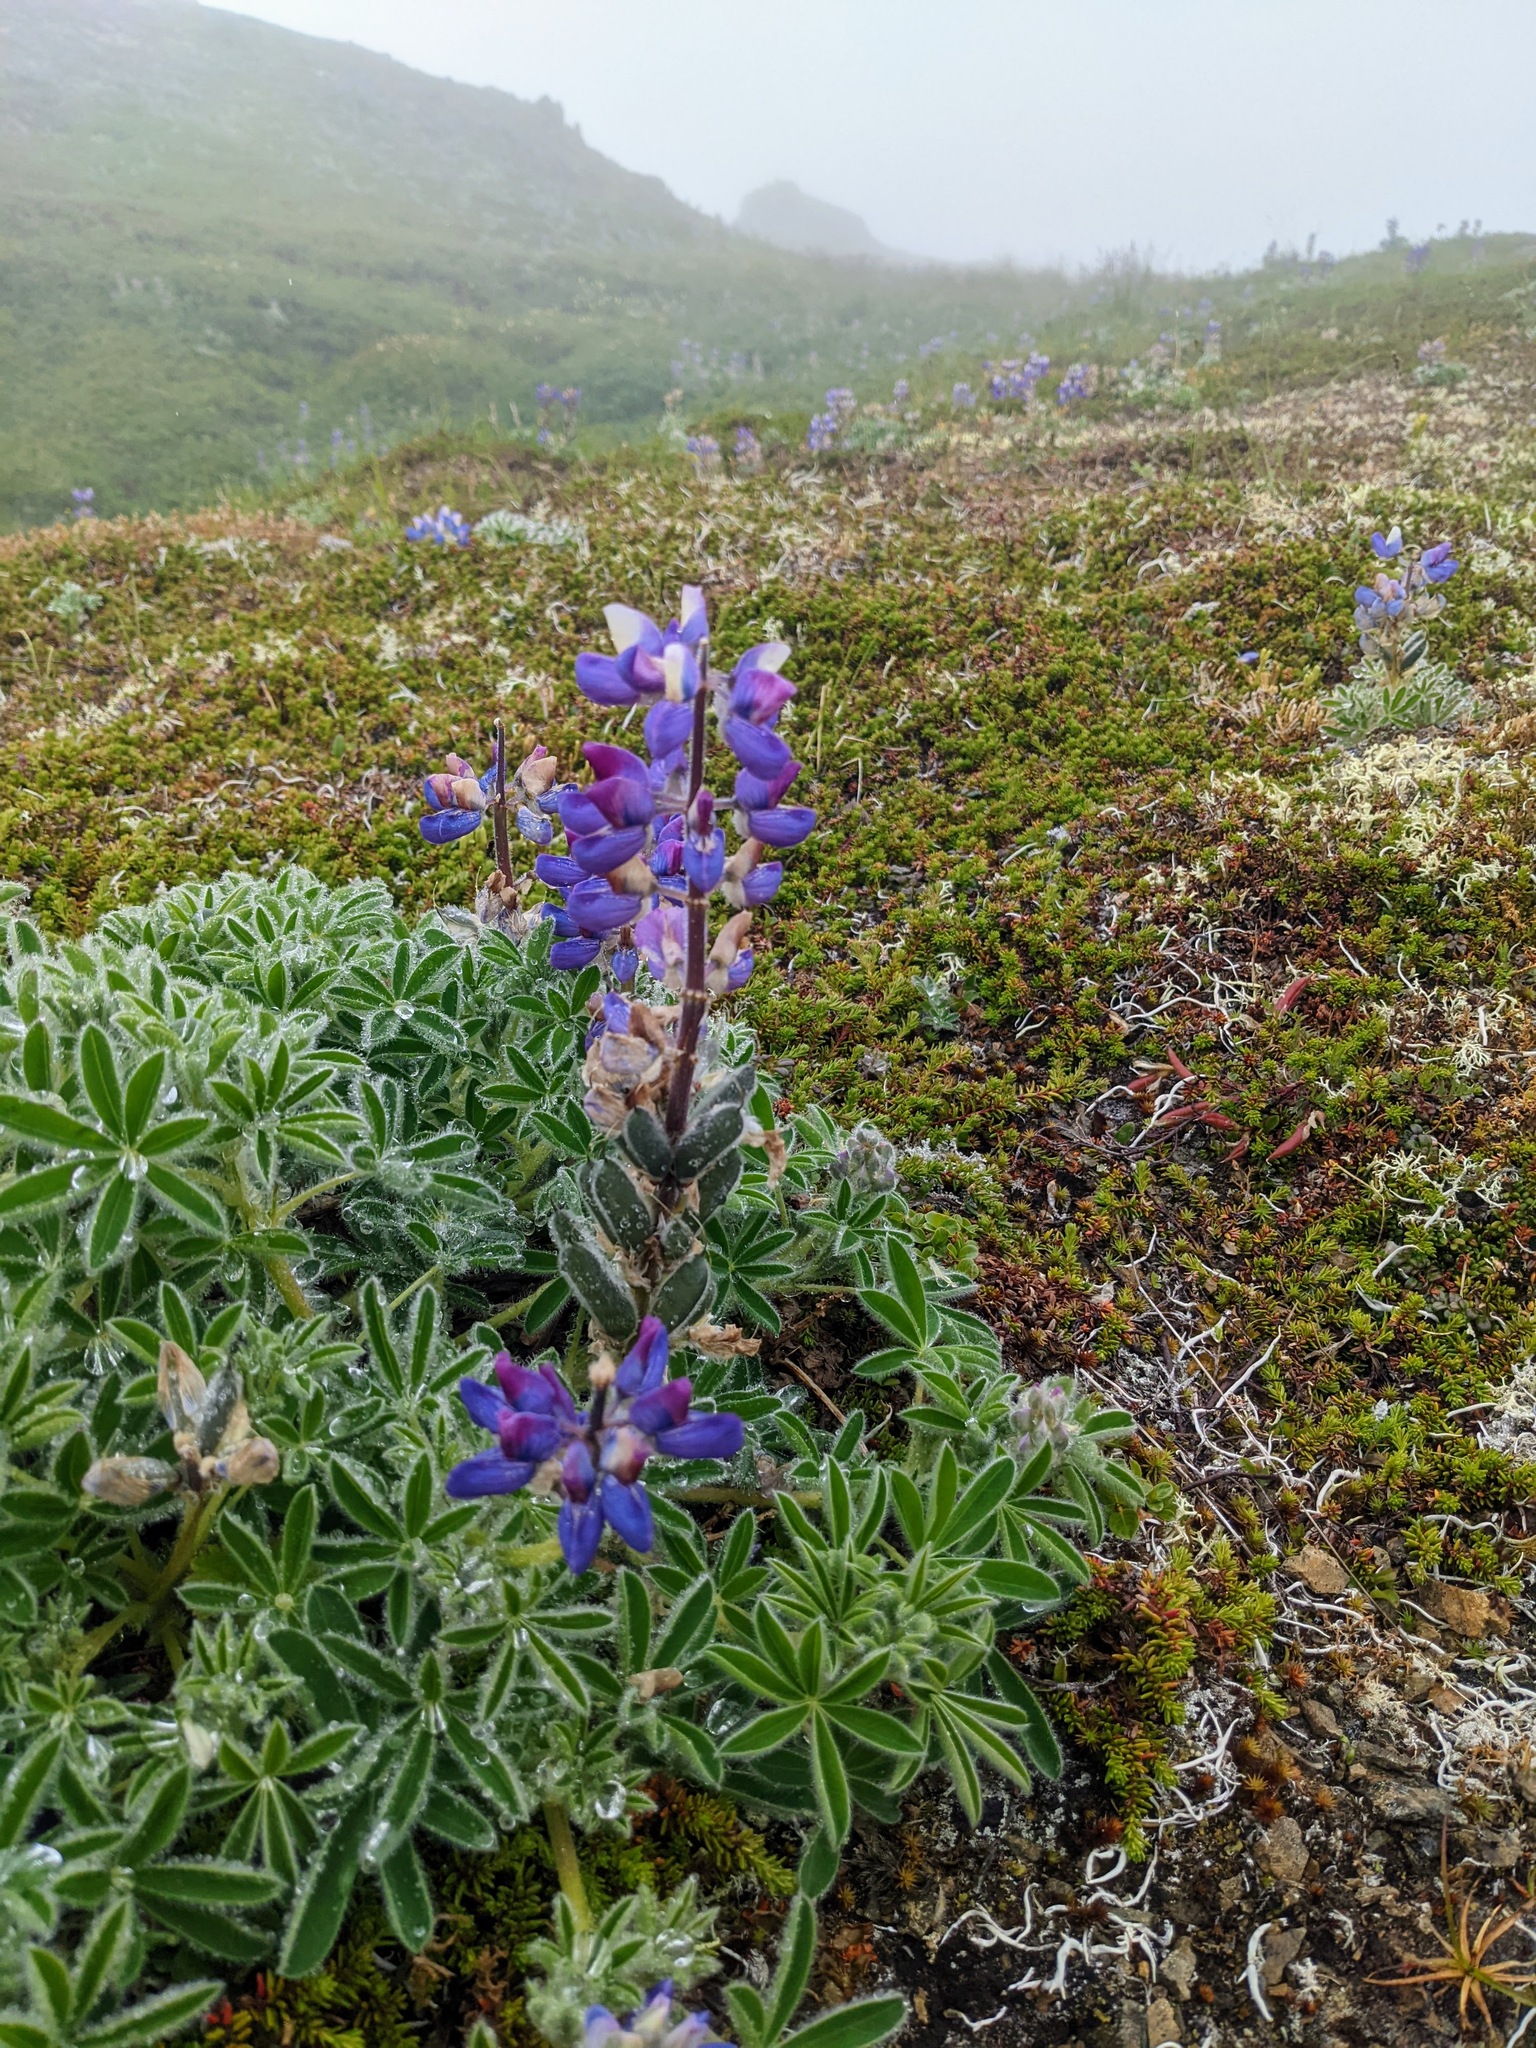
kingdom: Plantae
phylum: Tracheophyta
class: Magnoliopsida
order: Fabales
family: Fabaceae
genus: Lupinus
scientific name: Lupinus nootkatensis
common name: Nootka lupine
